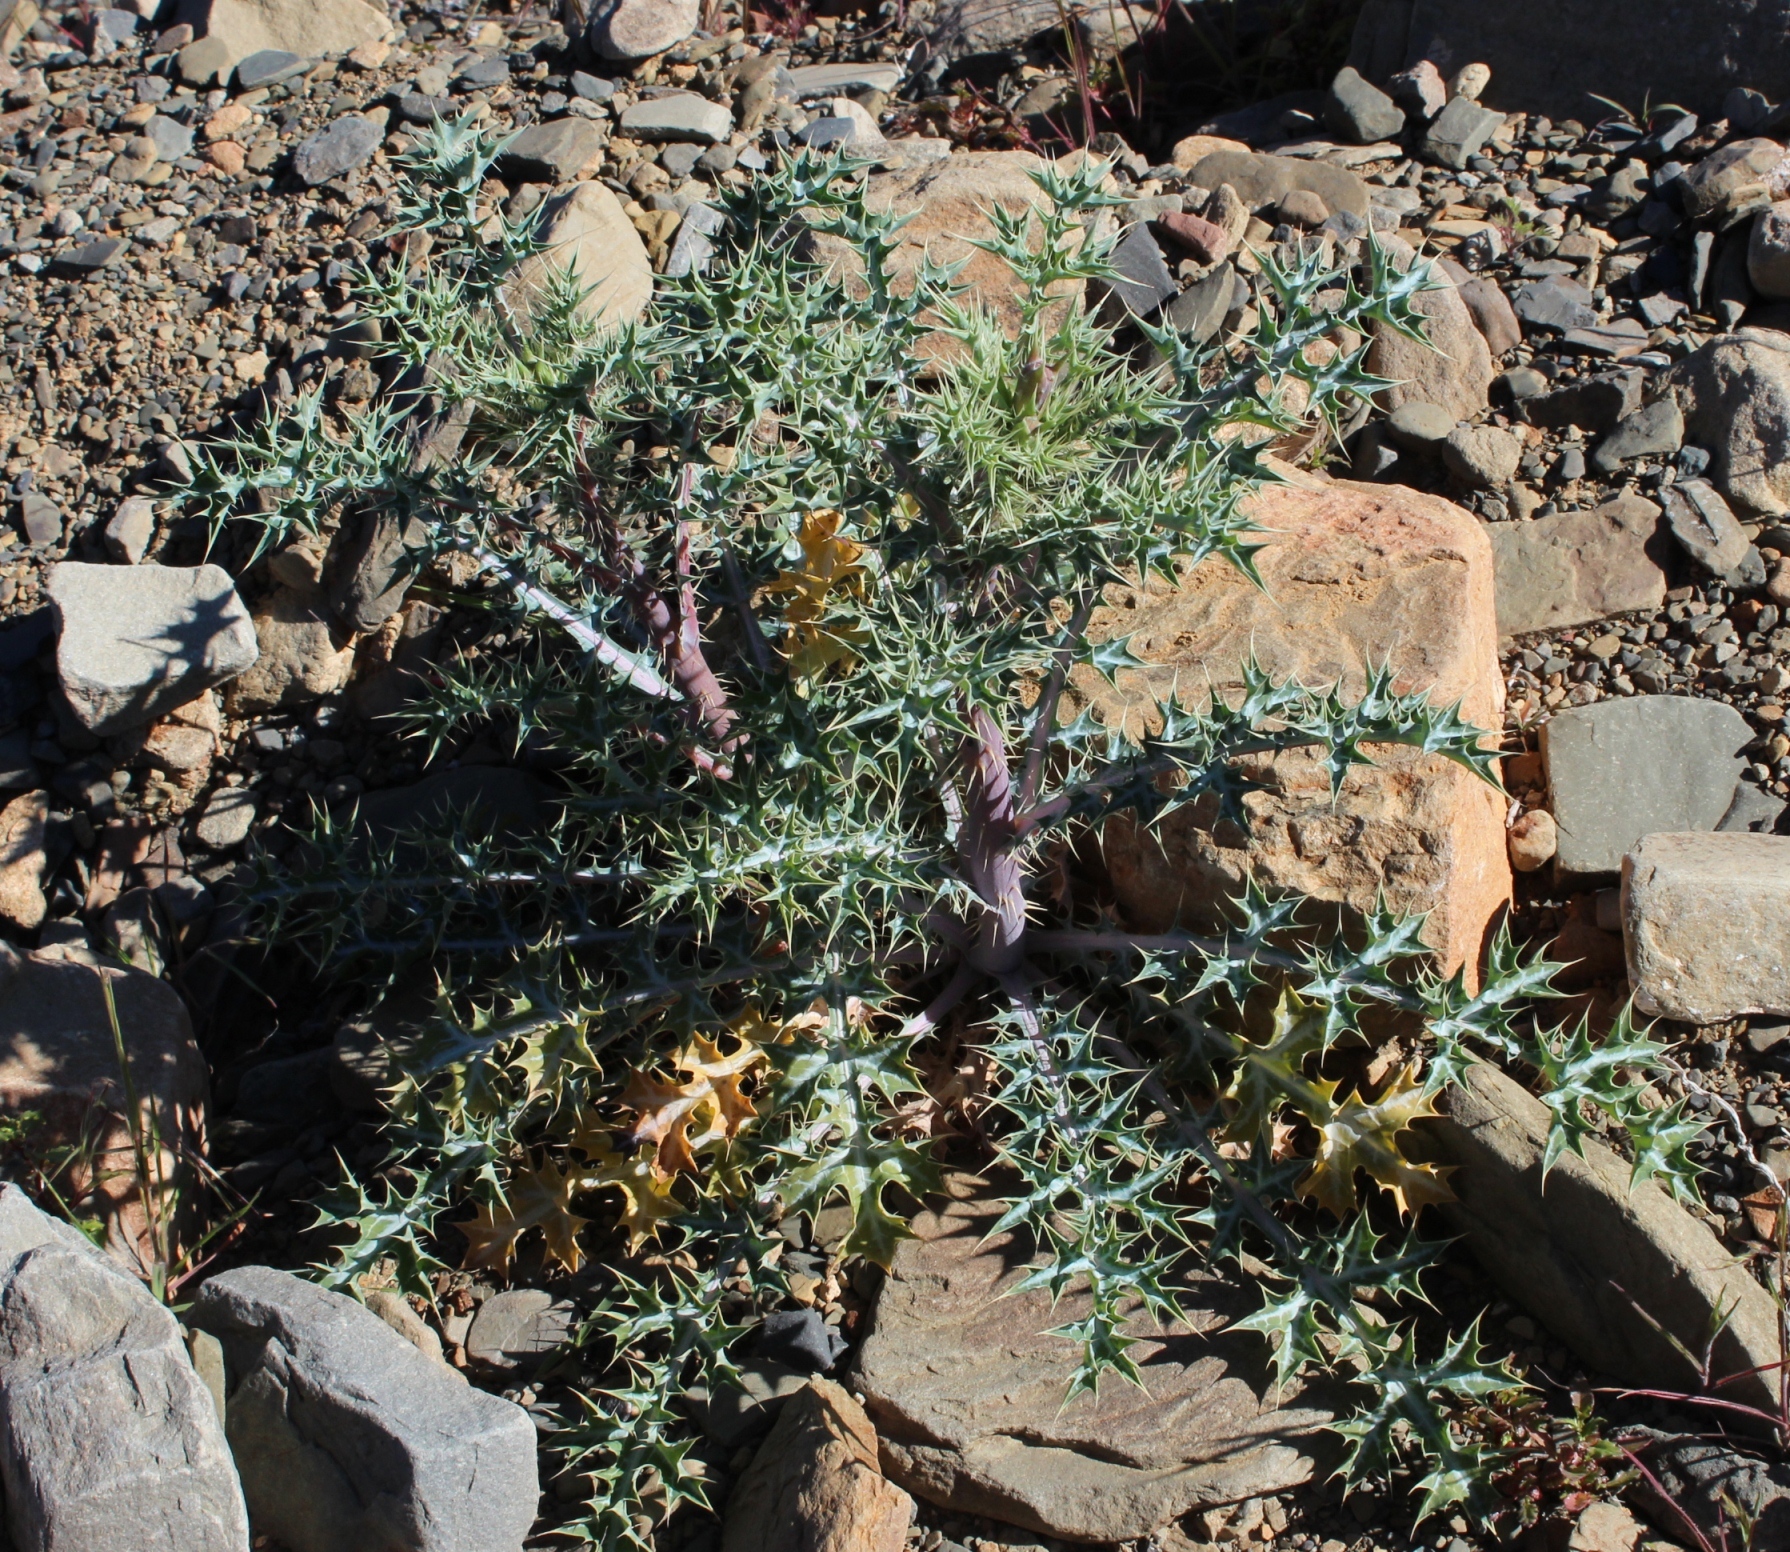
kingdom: Plantae
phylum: Tracheophyta
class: Magnoliopsida
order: Ranunculales
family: Papaveraceae
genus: Argemone
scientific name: Argemone ochroleuca
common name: White-flower mexican-poppy
